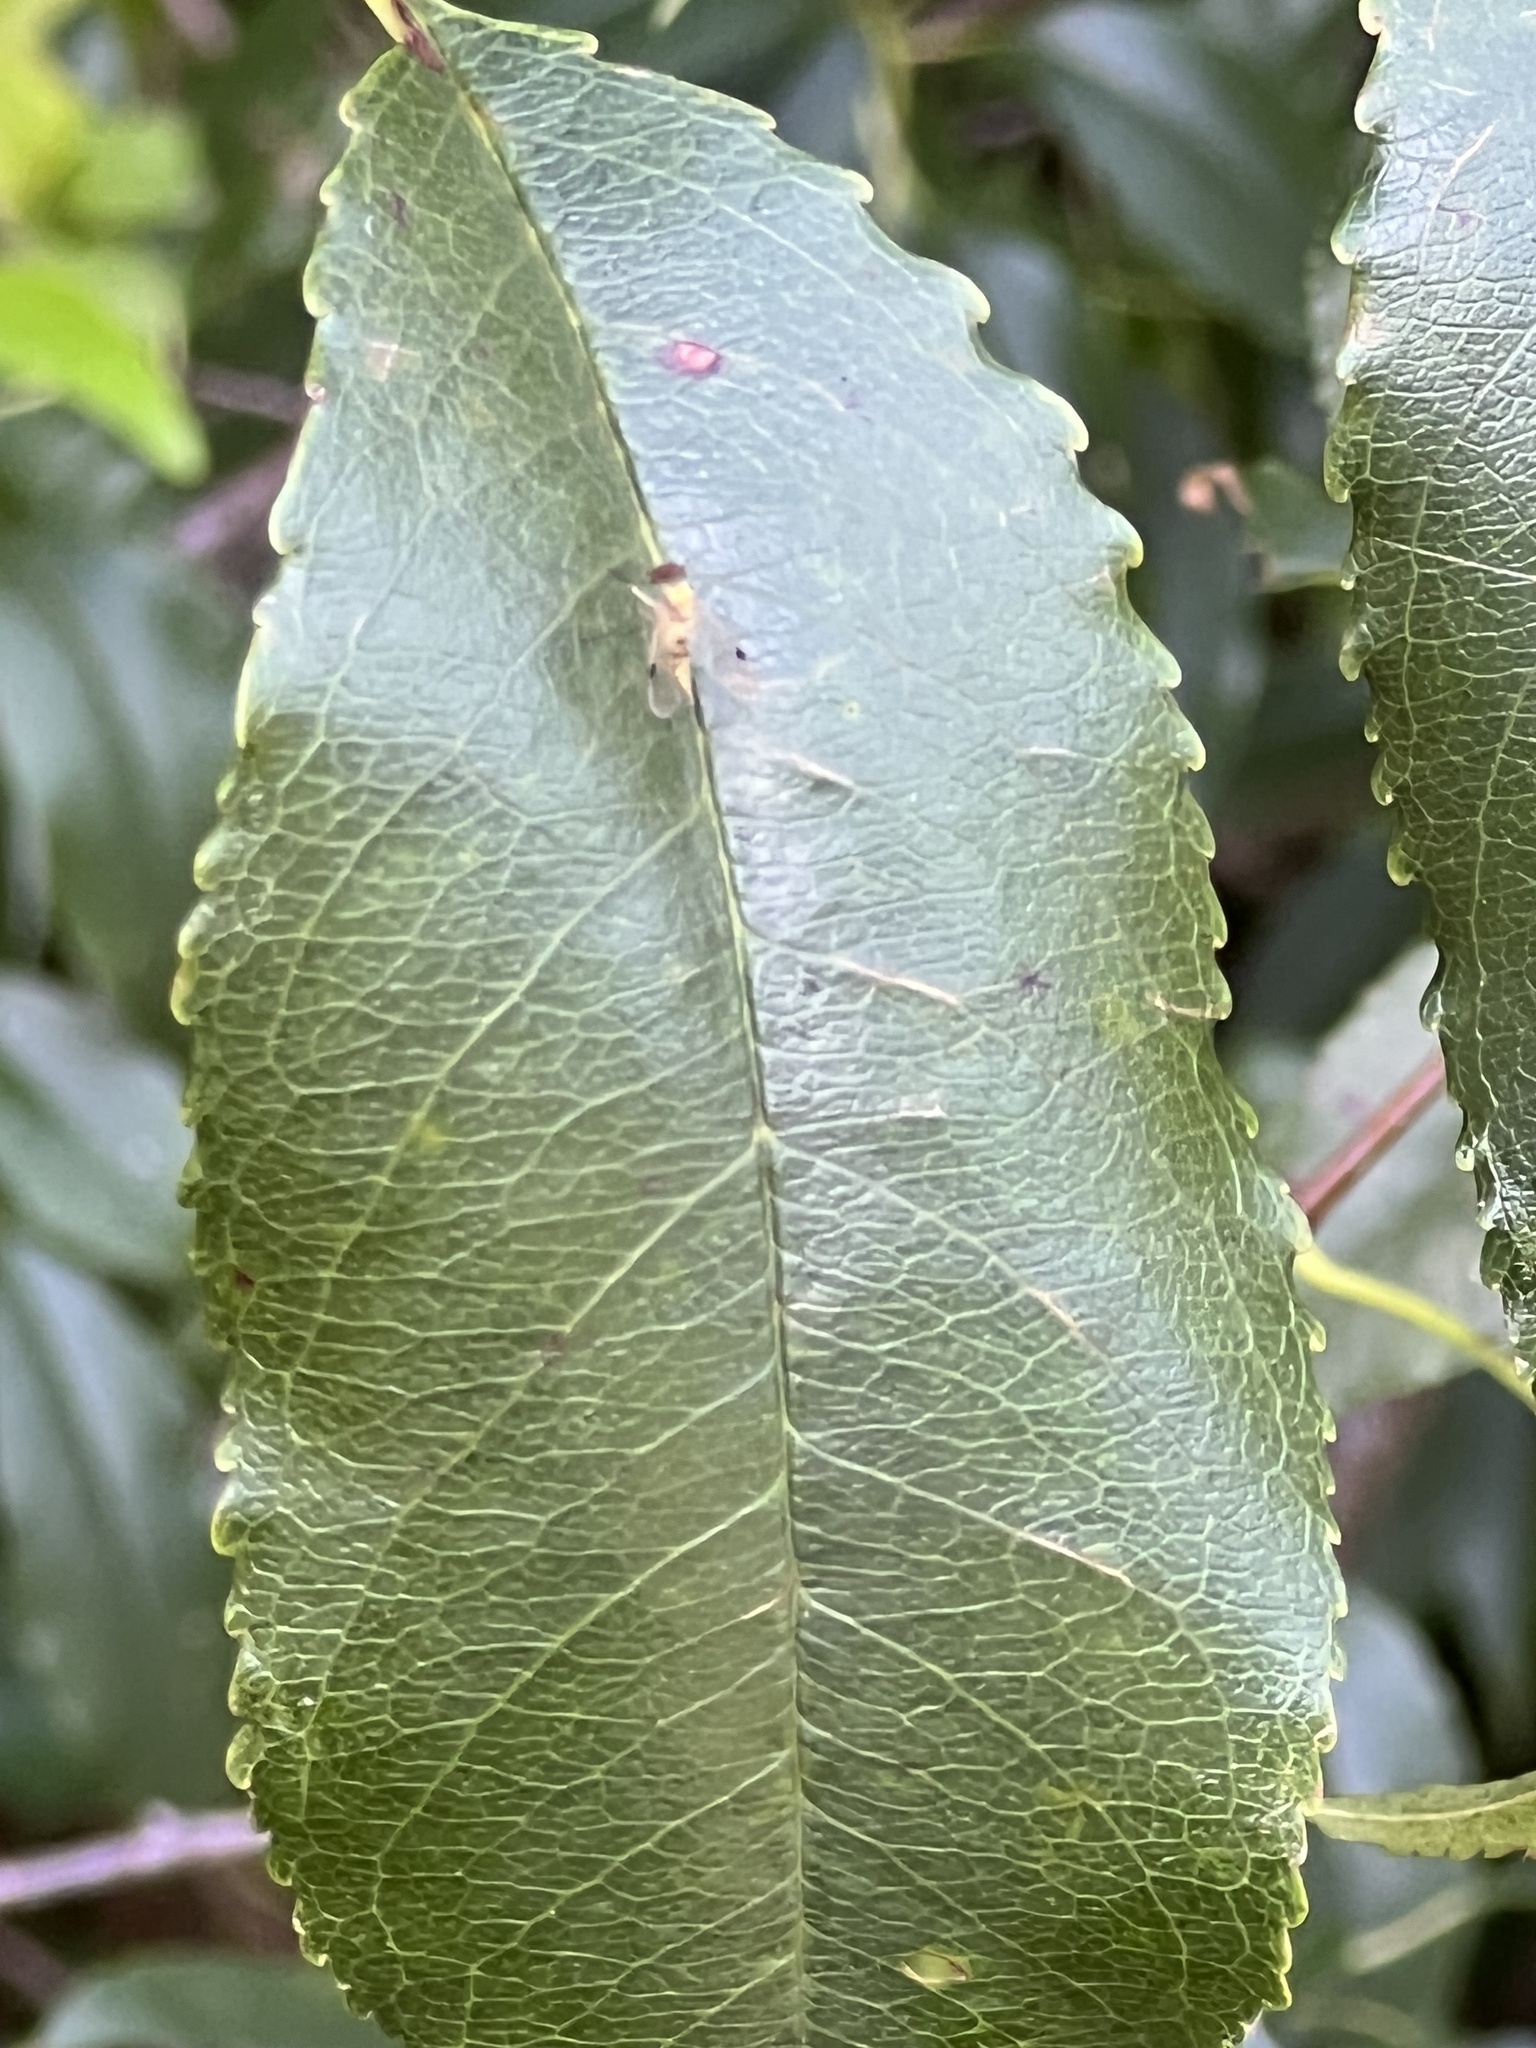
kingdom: Animalia
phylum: Arthropoda
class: Insecta
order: Diptera
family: Rhagionidae
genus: Chrysopilus
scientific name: Chrysopilus modestus
